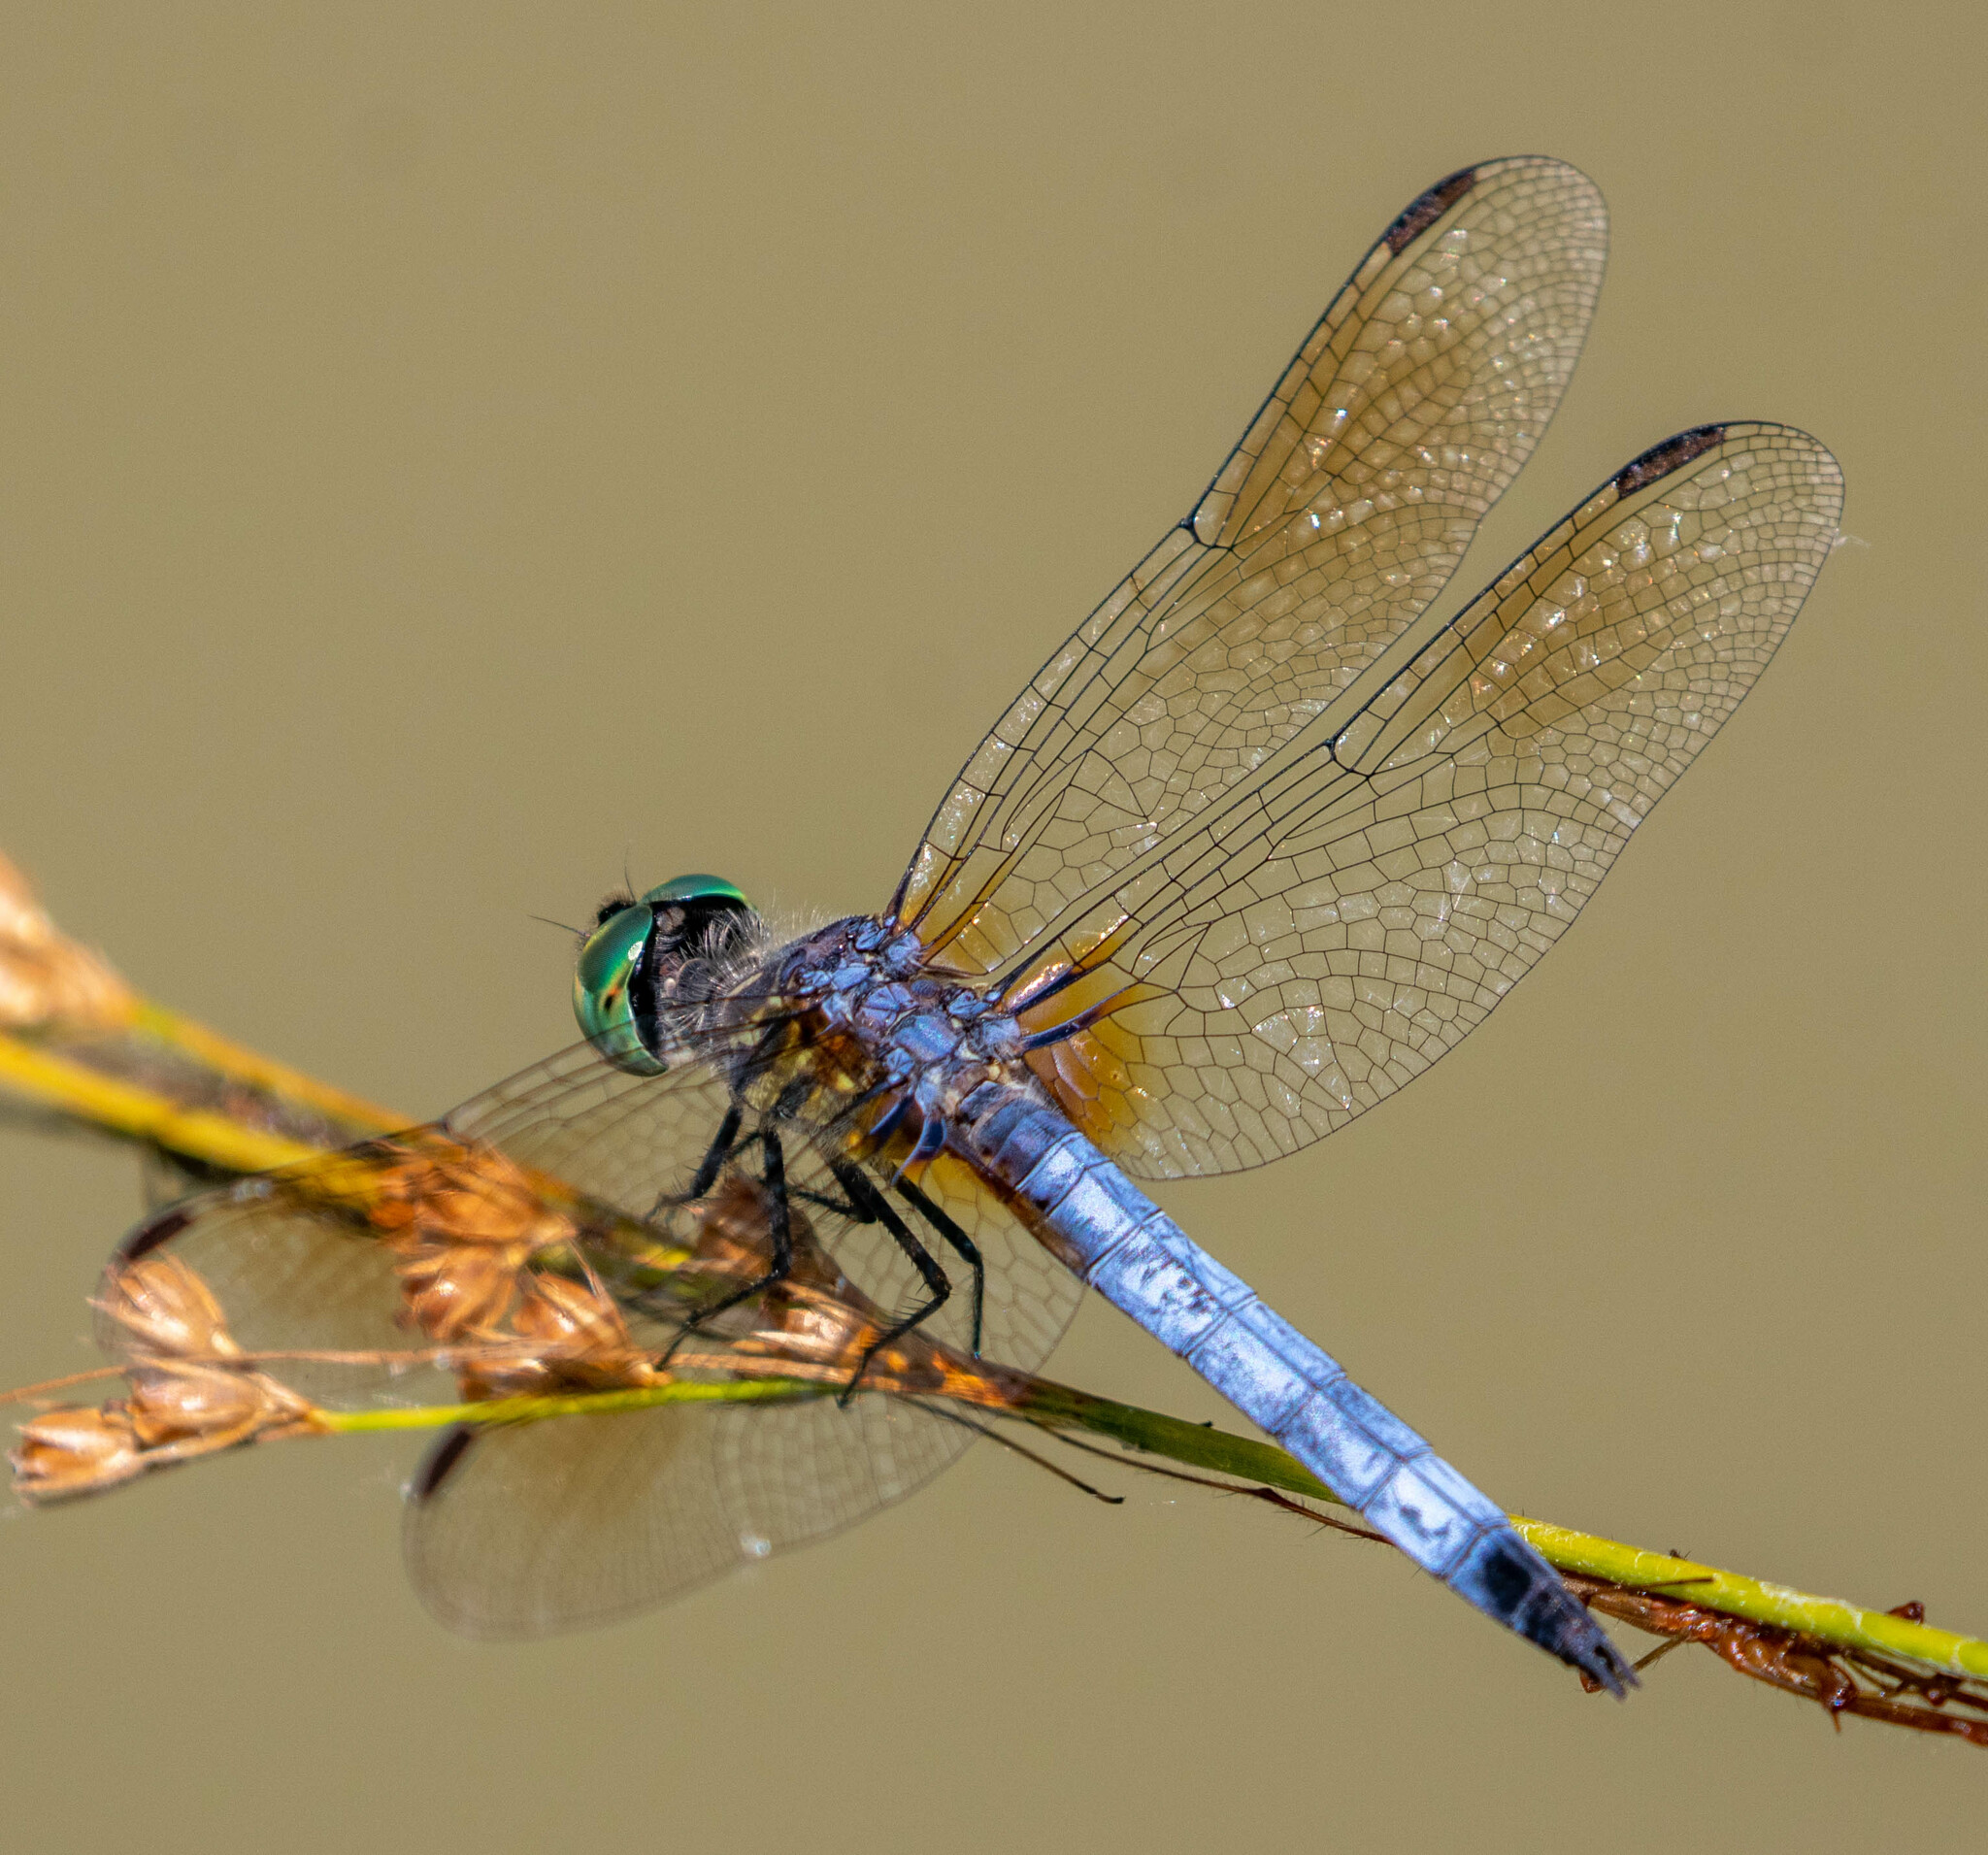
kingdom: Animalia
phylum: Arthropoda
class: Insecta
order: Odonata
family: Libellulidae
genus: Pachydiplax
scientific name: Pachydiplax longipennis
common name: Blue dasher
